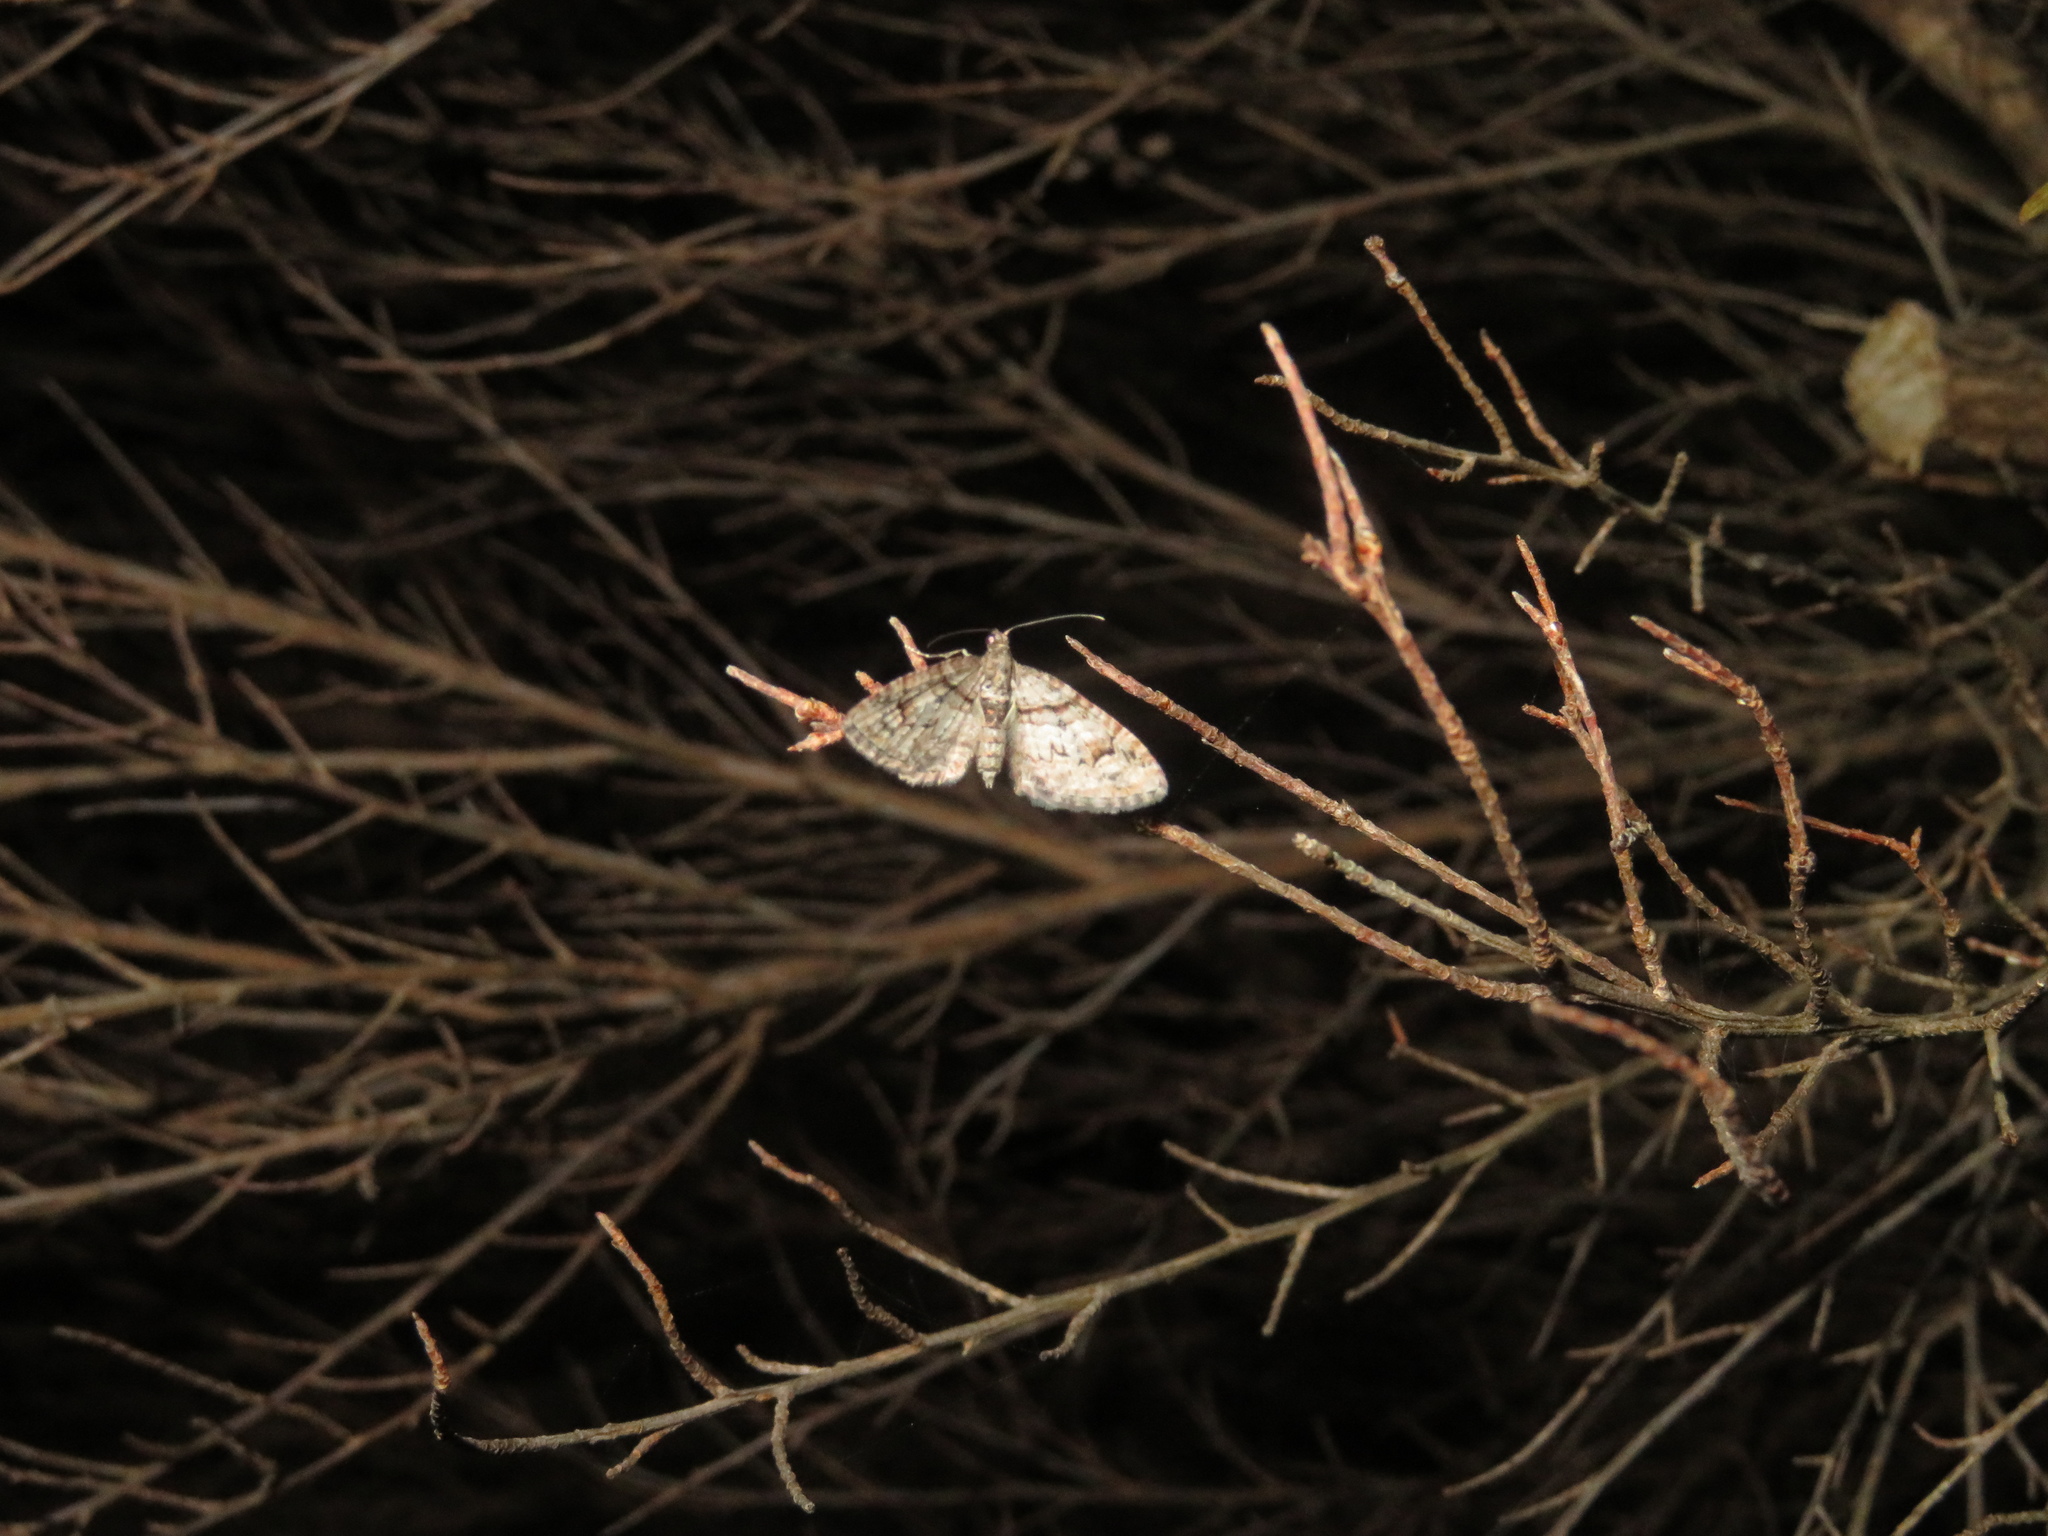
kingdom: Animalia
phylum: Arthropoda
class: Insecta
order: Lepidoptera
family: Geometridae
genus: Phrissogonus
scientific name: Phrissogonus laticostata
